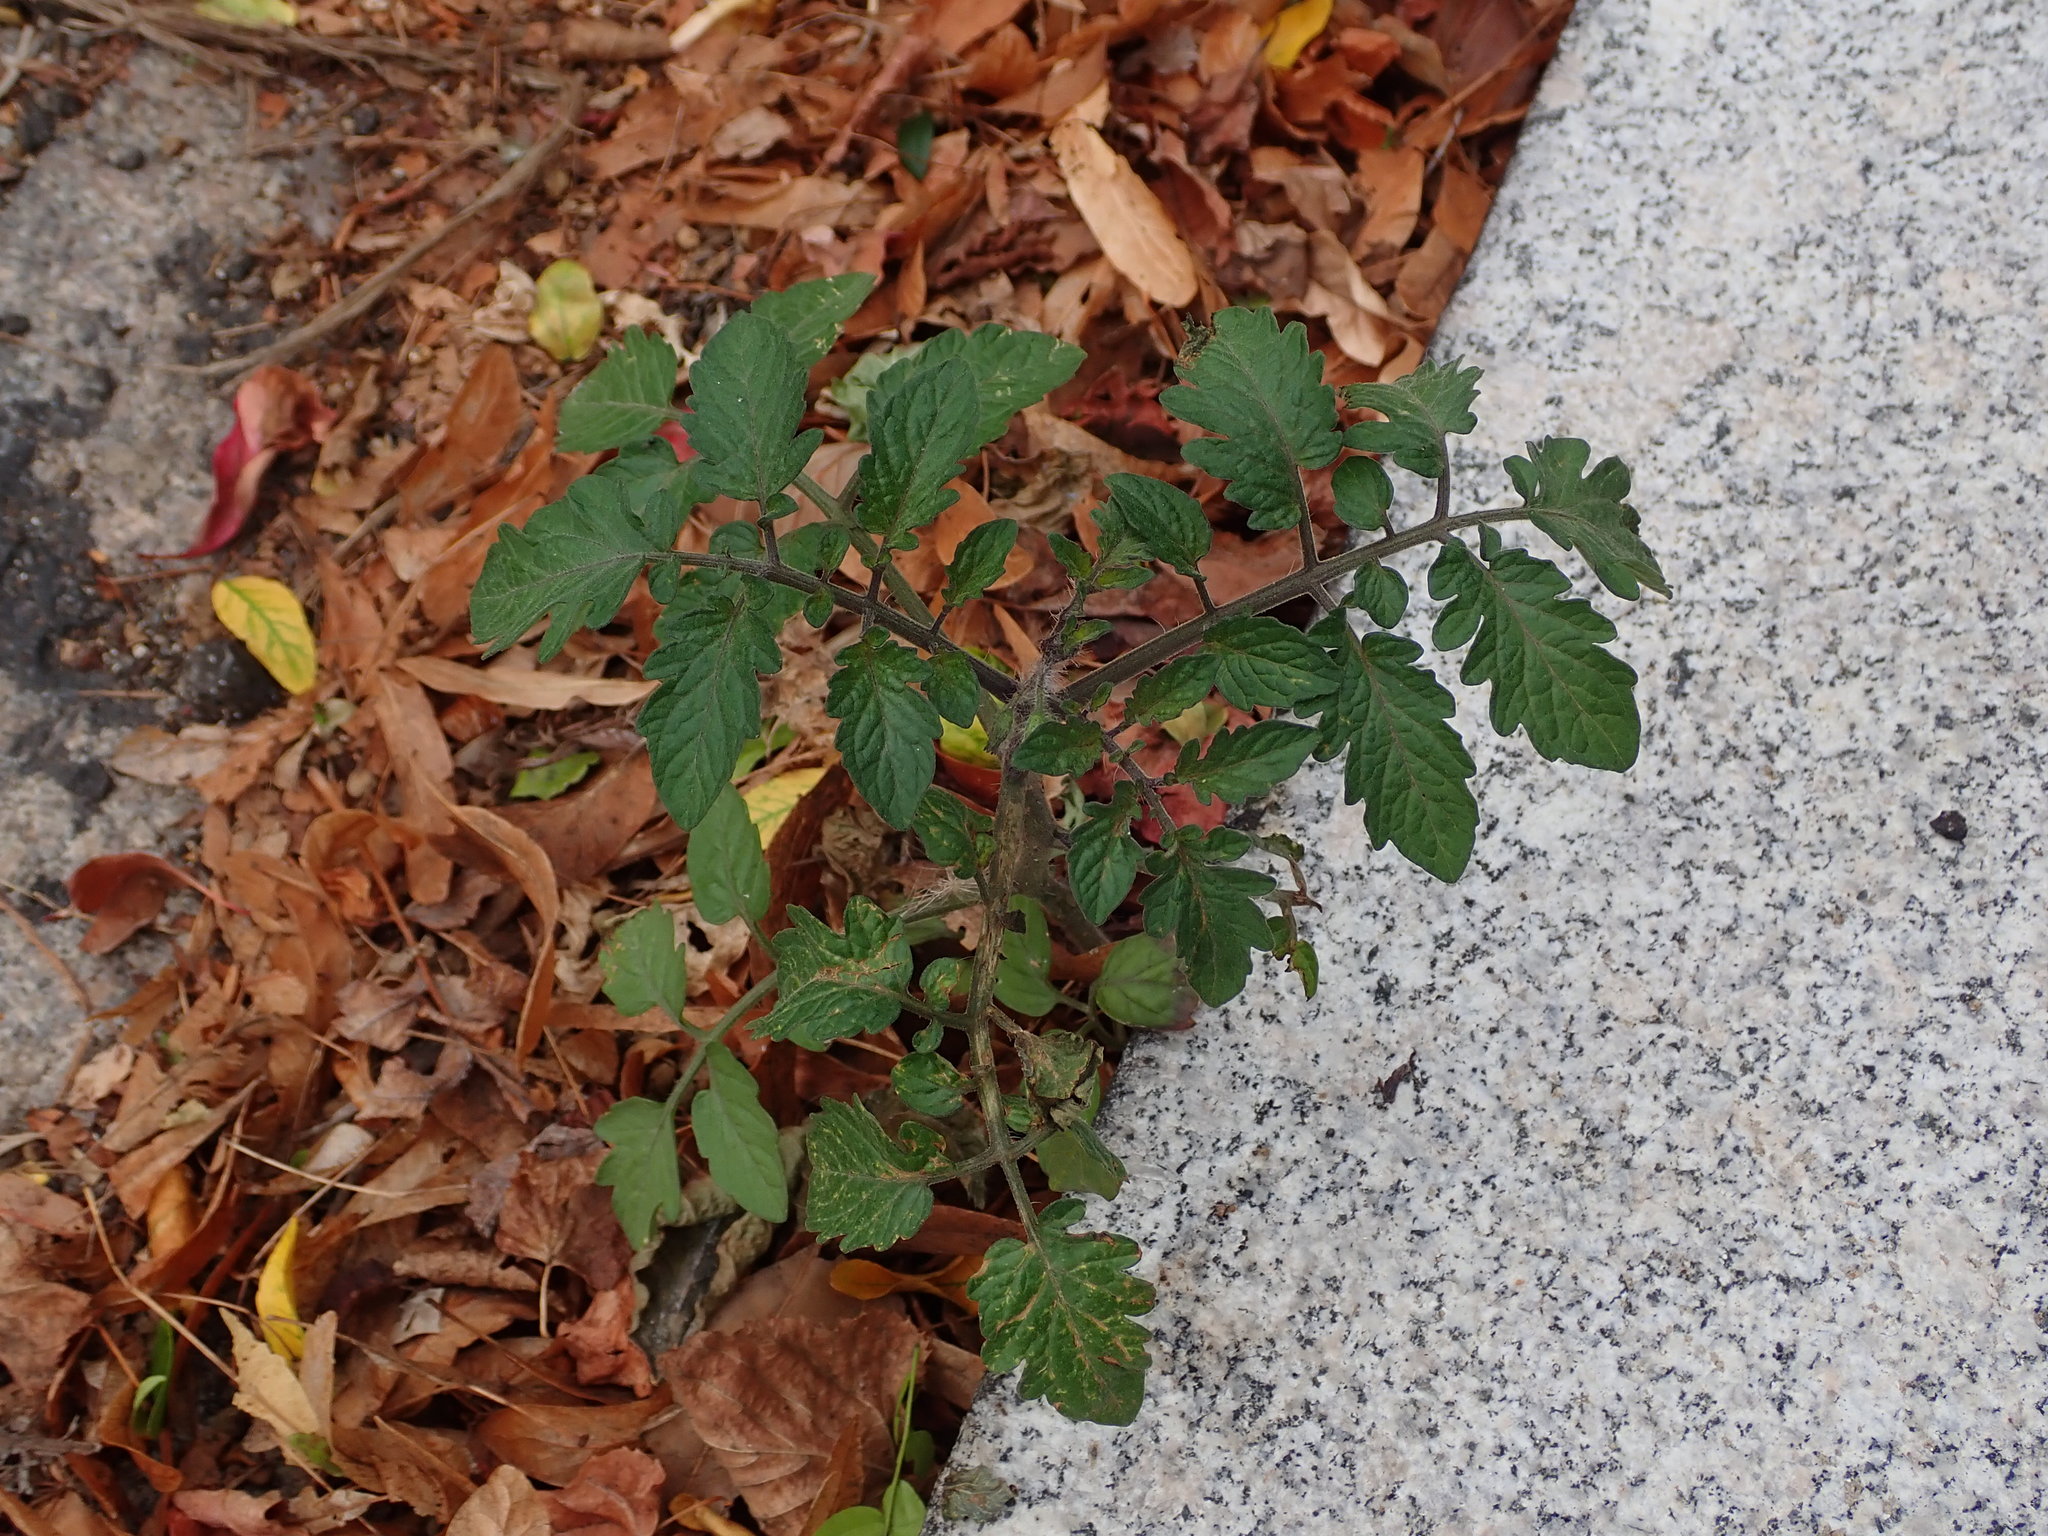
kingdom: Plantae
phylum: Tracheophyta
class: Magnoliopsida
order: Solanales
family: Solanaceae
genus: Solanum
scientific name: Solanum lycopersicum
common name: Garden tomato
